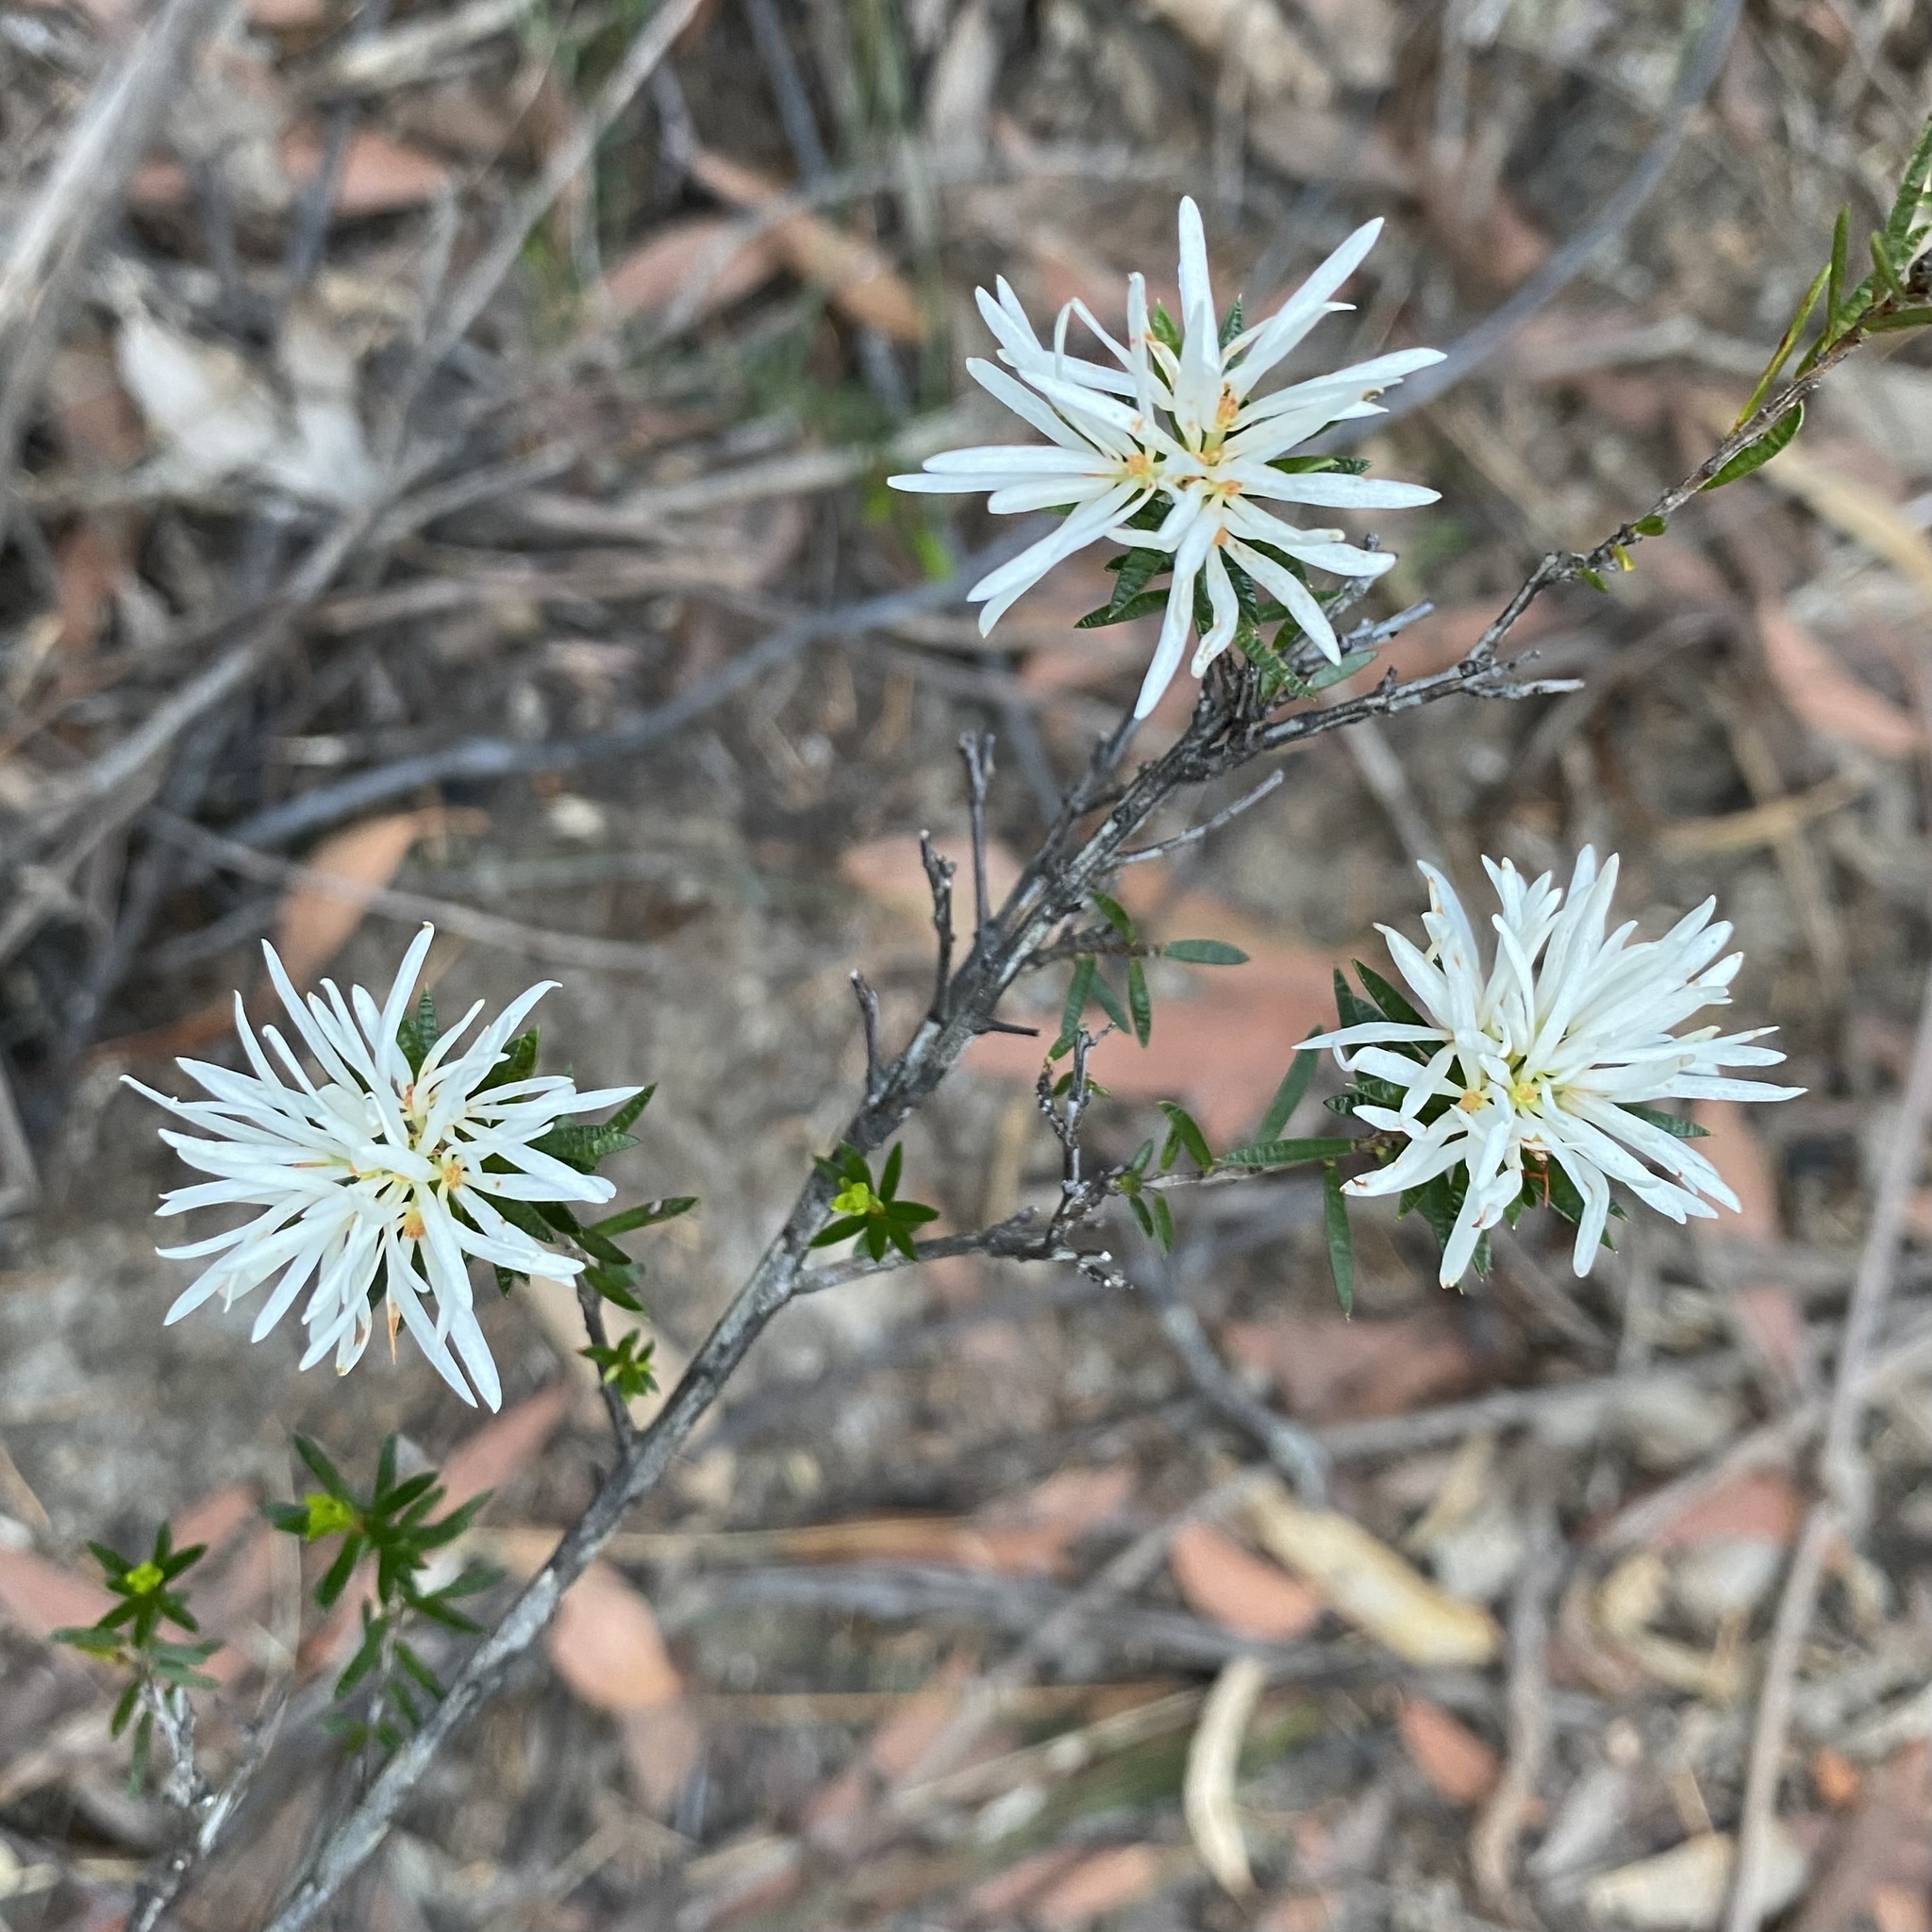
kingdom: Plantae
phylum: Tracheophyta
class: Magnoliopsida
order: Malpighiales
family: Picrodendraceae
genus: Pseudanthus
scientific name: Pseudanthus pimeleoides
